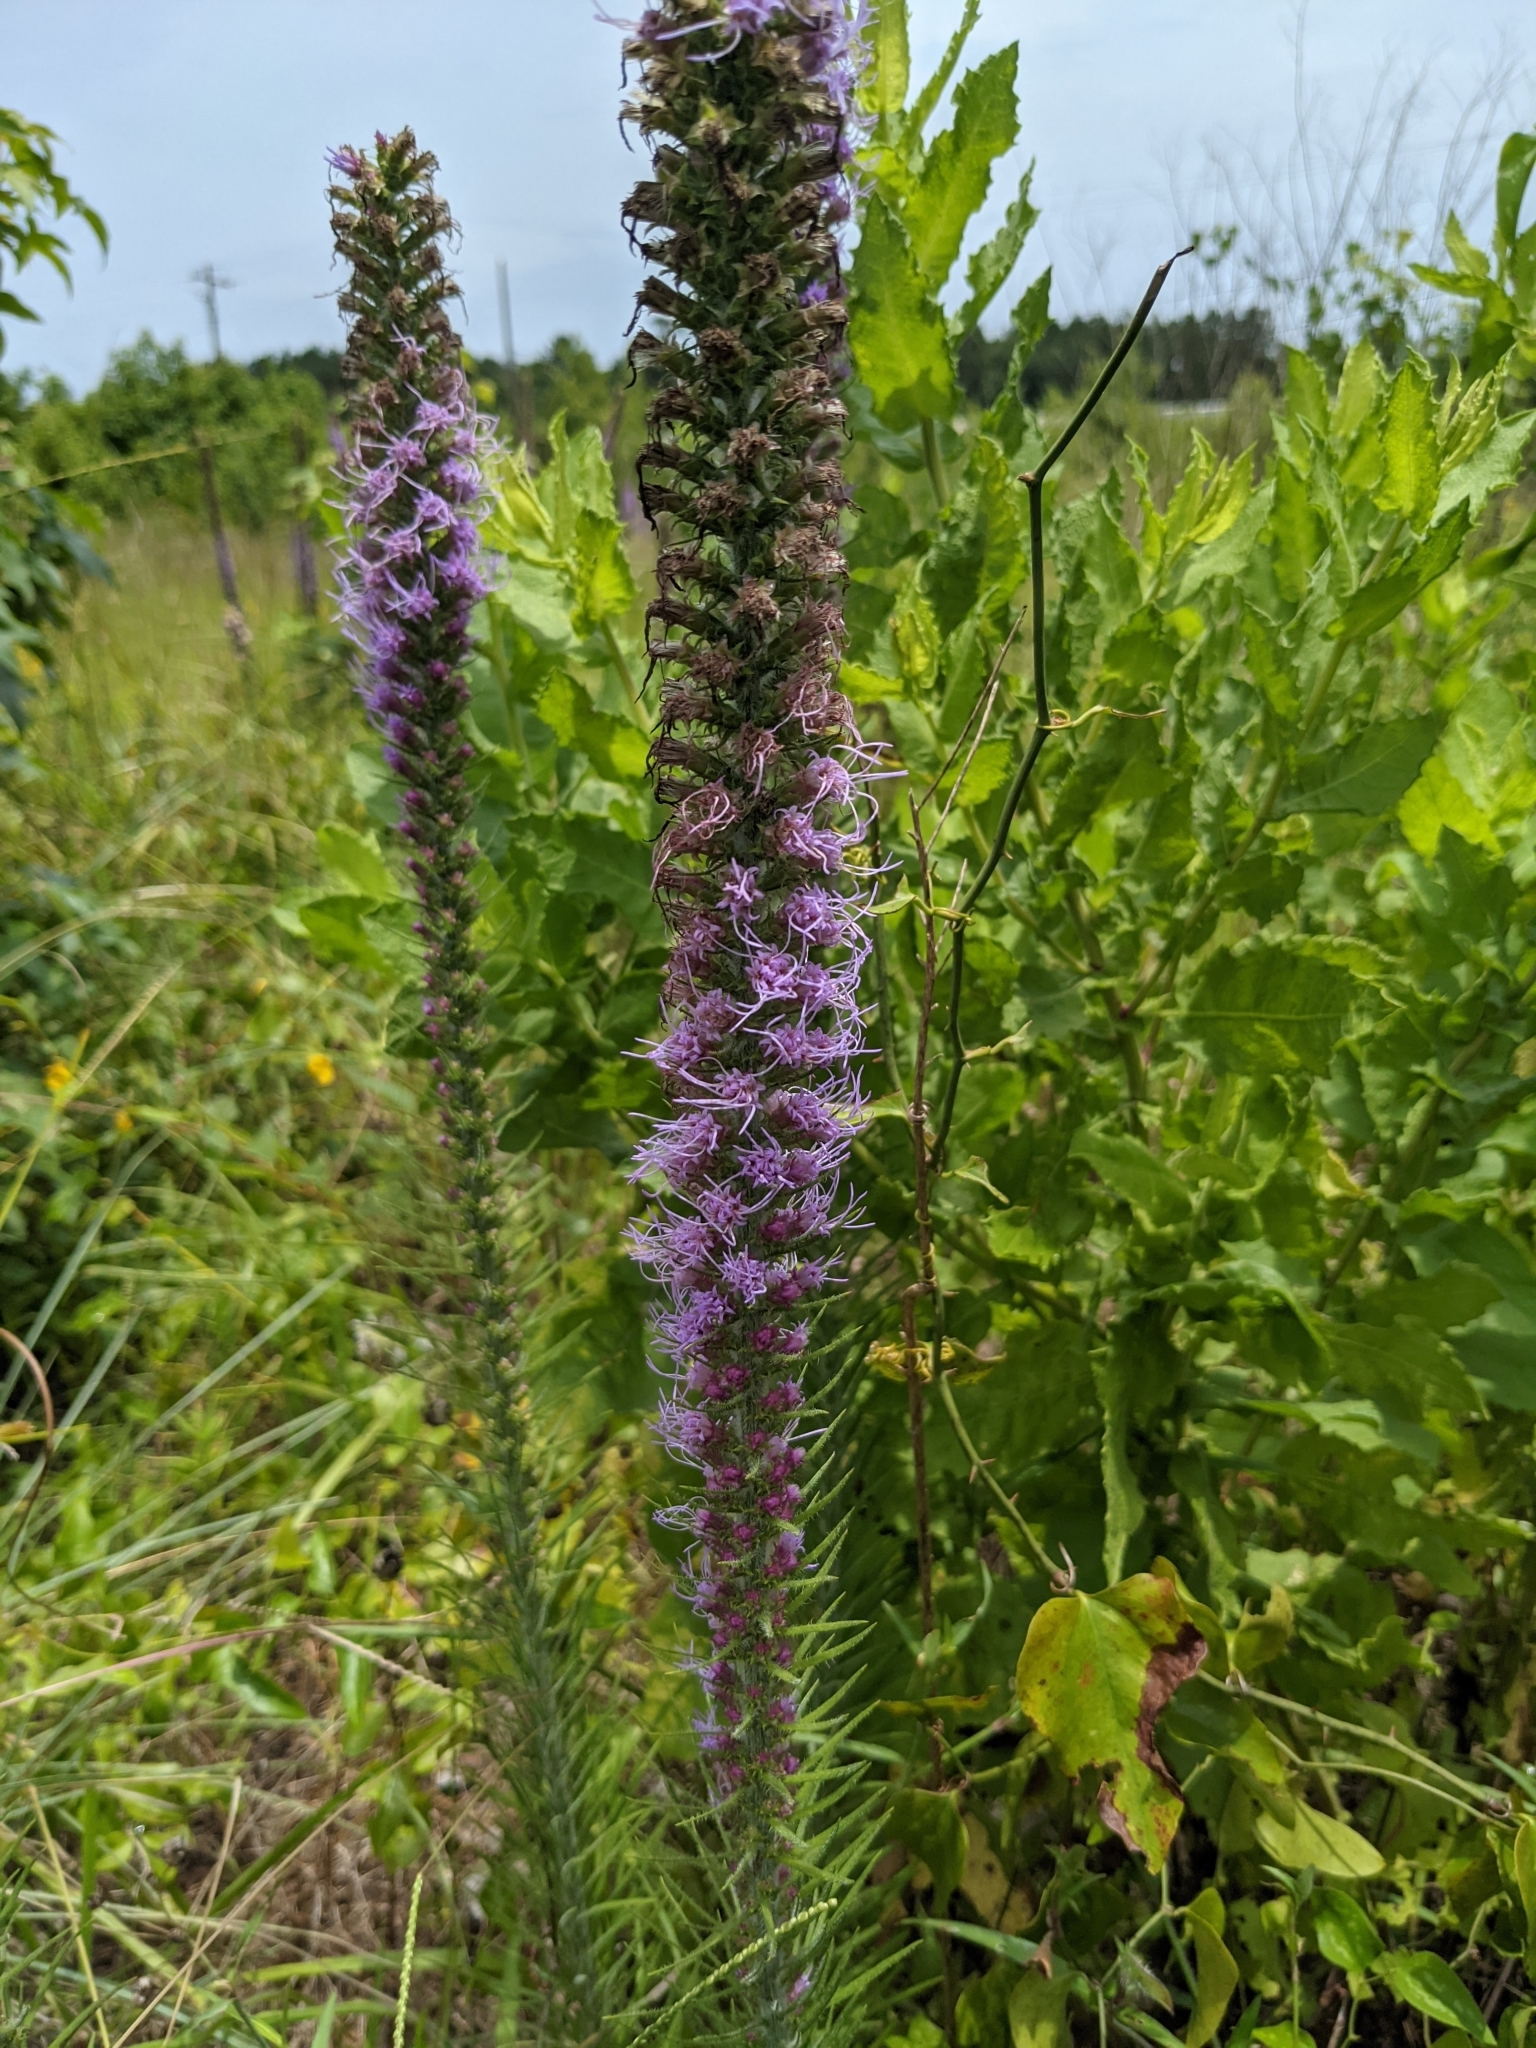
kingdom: Plantae
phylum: Tracheophyta
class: Magnoliopsida
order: Asterales
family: Asteraceae
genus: Liatris
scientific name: Liatris pycnostachya
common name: Cattail gayfeather
